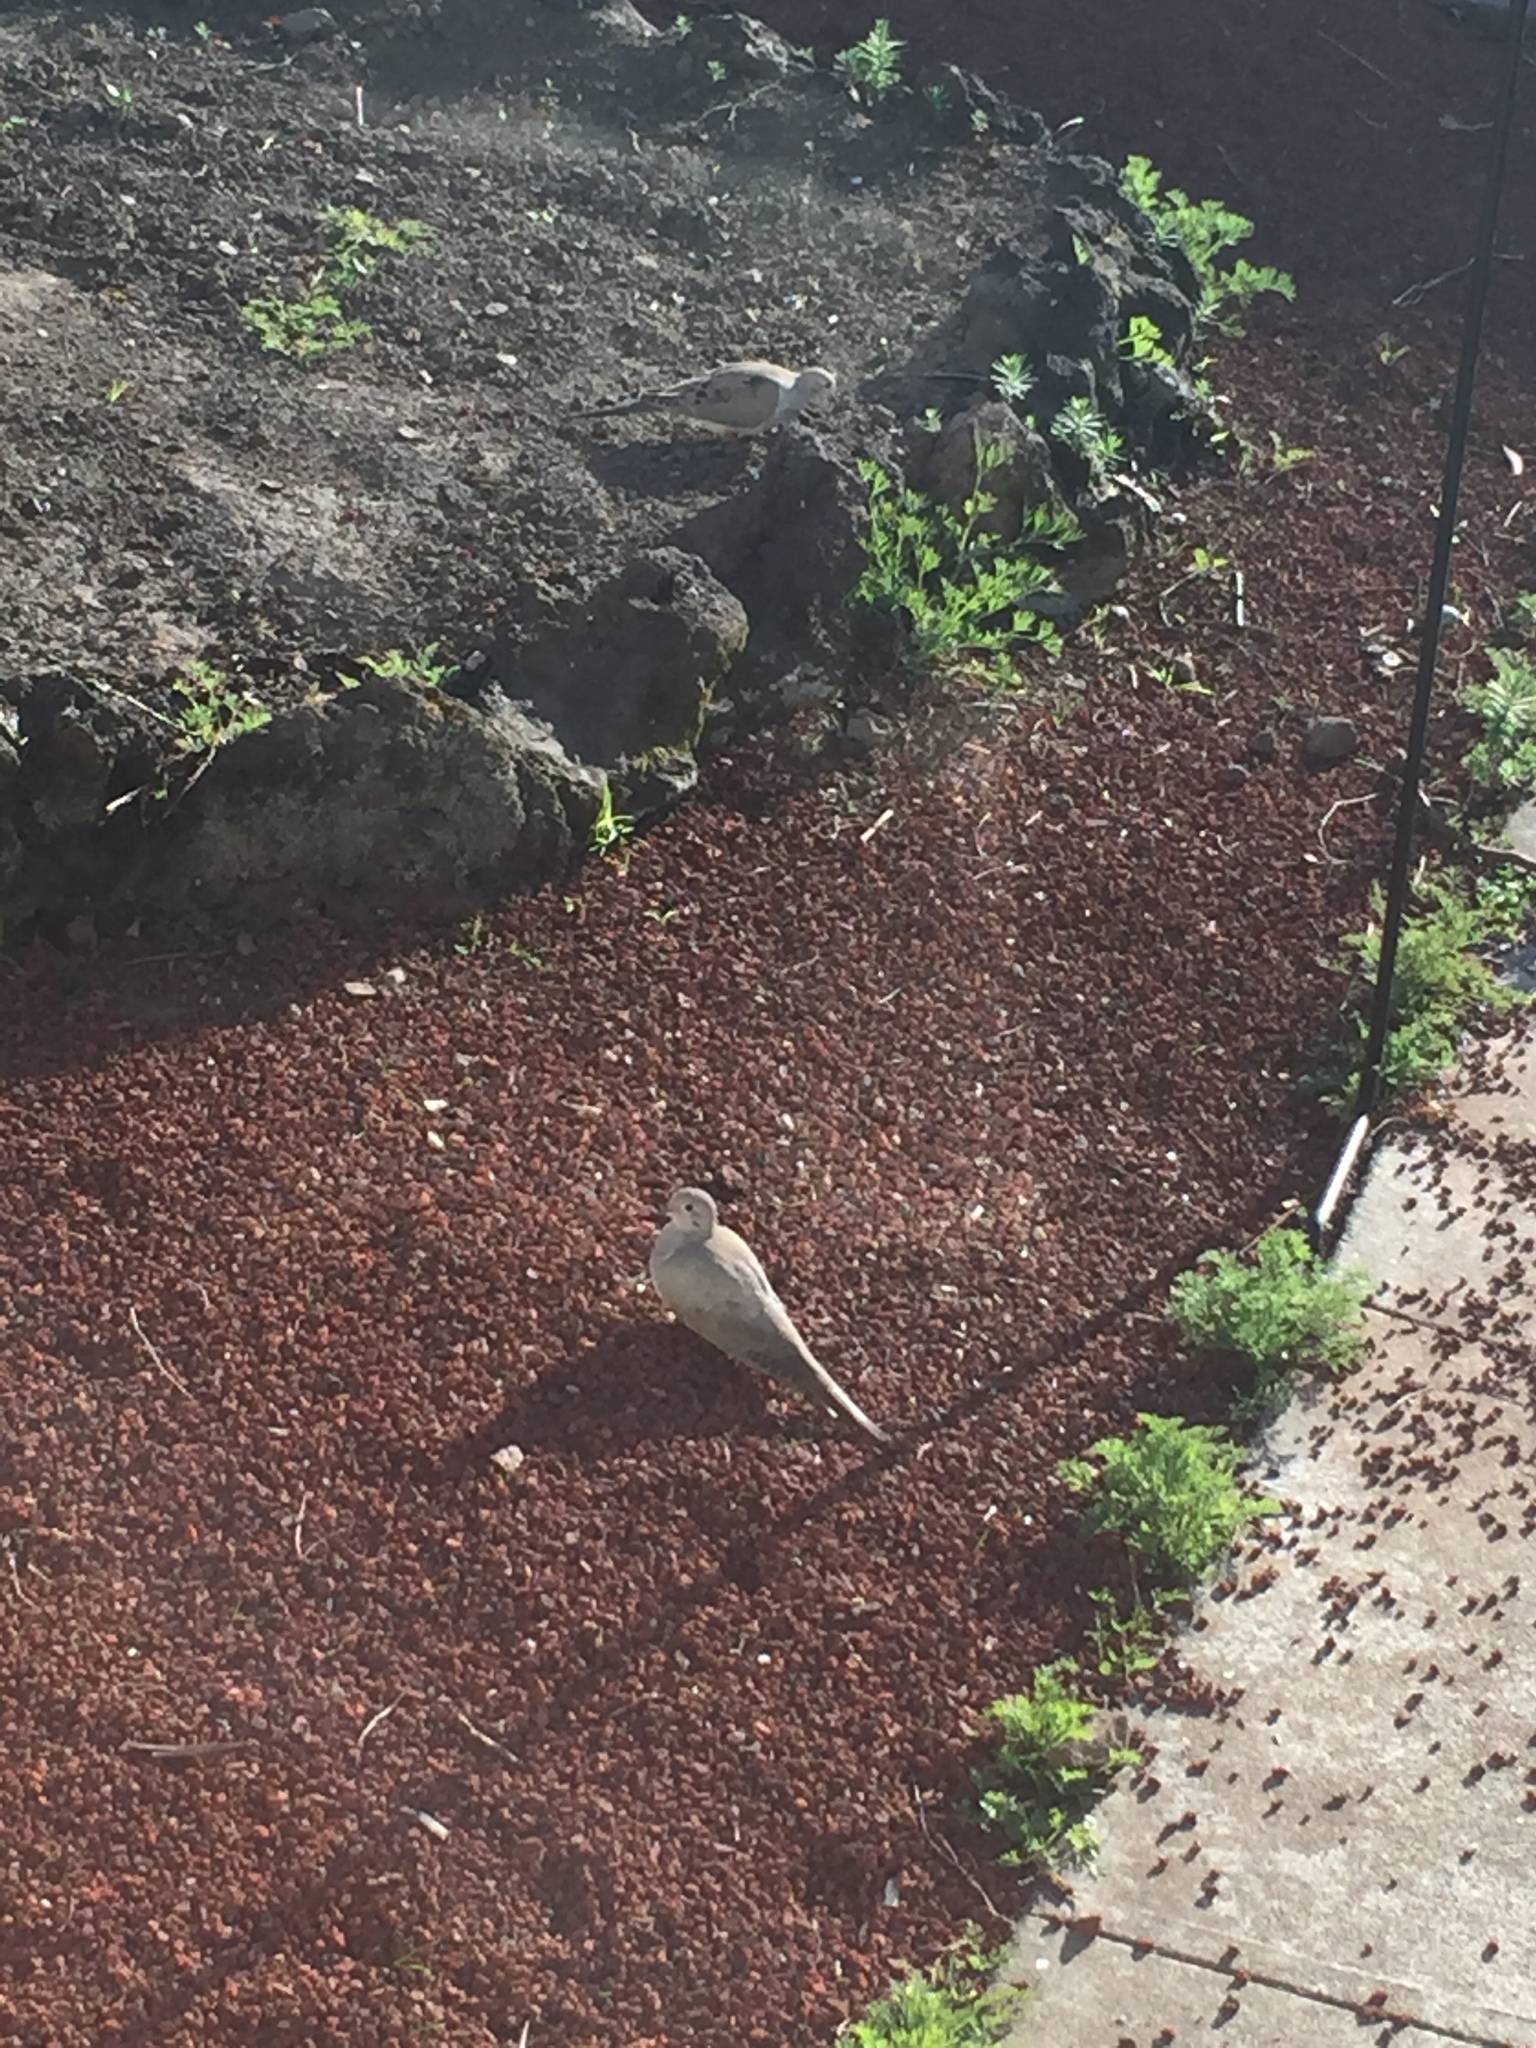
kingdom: Animalia
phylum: Chordata
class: Aves
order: Columbiformes
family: Columbidae
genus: Zenaida
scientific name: Zenaida macroura
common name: Mourning dove
